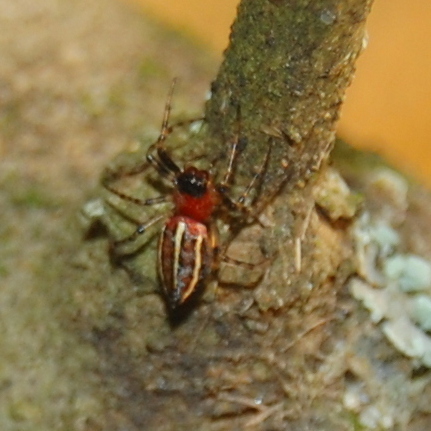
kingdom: Animalia
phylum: Arthropoda
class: Arachnida
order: Araneae
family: Araneidae
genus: Alpaida
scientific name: Alpaida leucogramma
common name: Orb weavers
